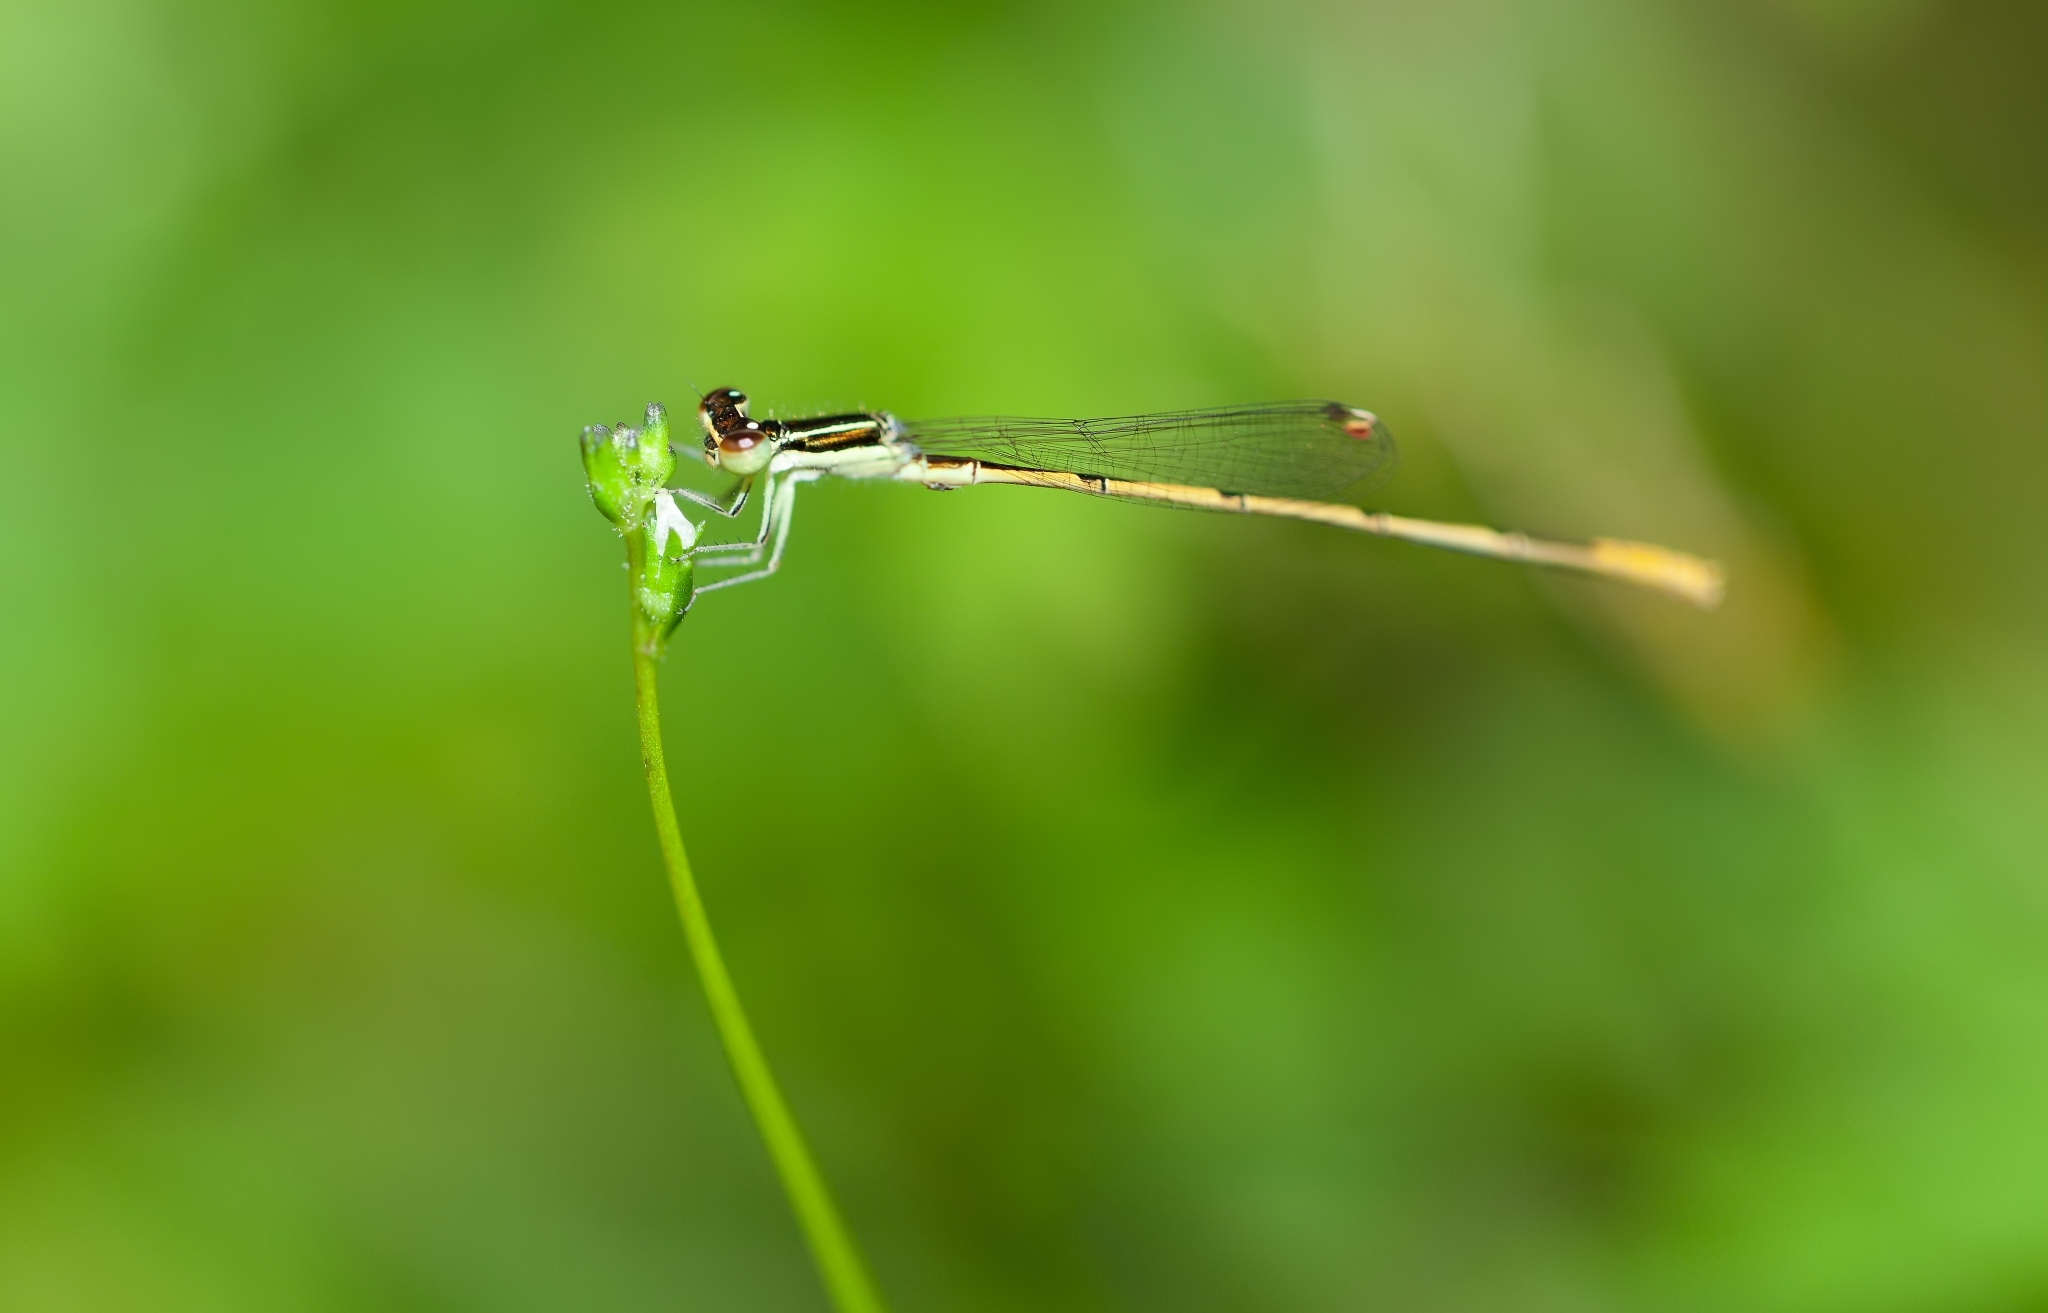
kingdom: Animalia
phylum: Arthropoda
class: Insecta
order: Odonata
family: Coenagrionidae
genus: Ischnura
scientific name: Ischnura hastata
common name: Citrine forktail
